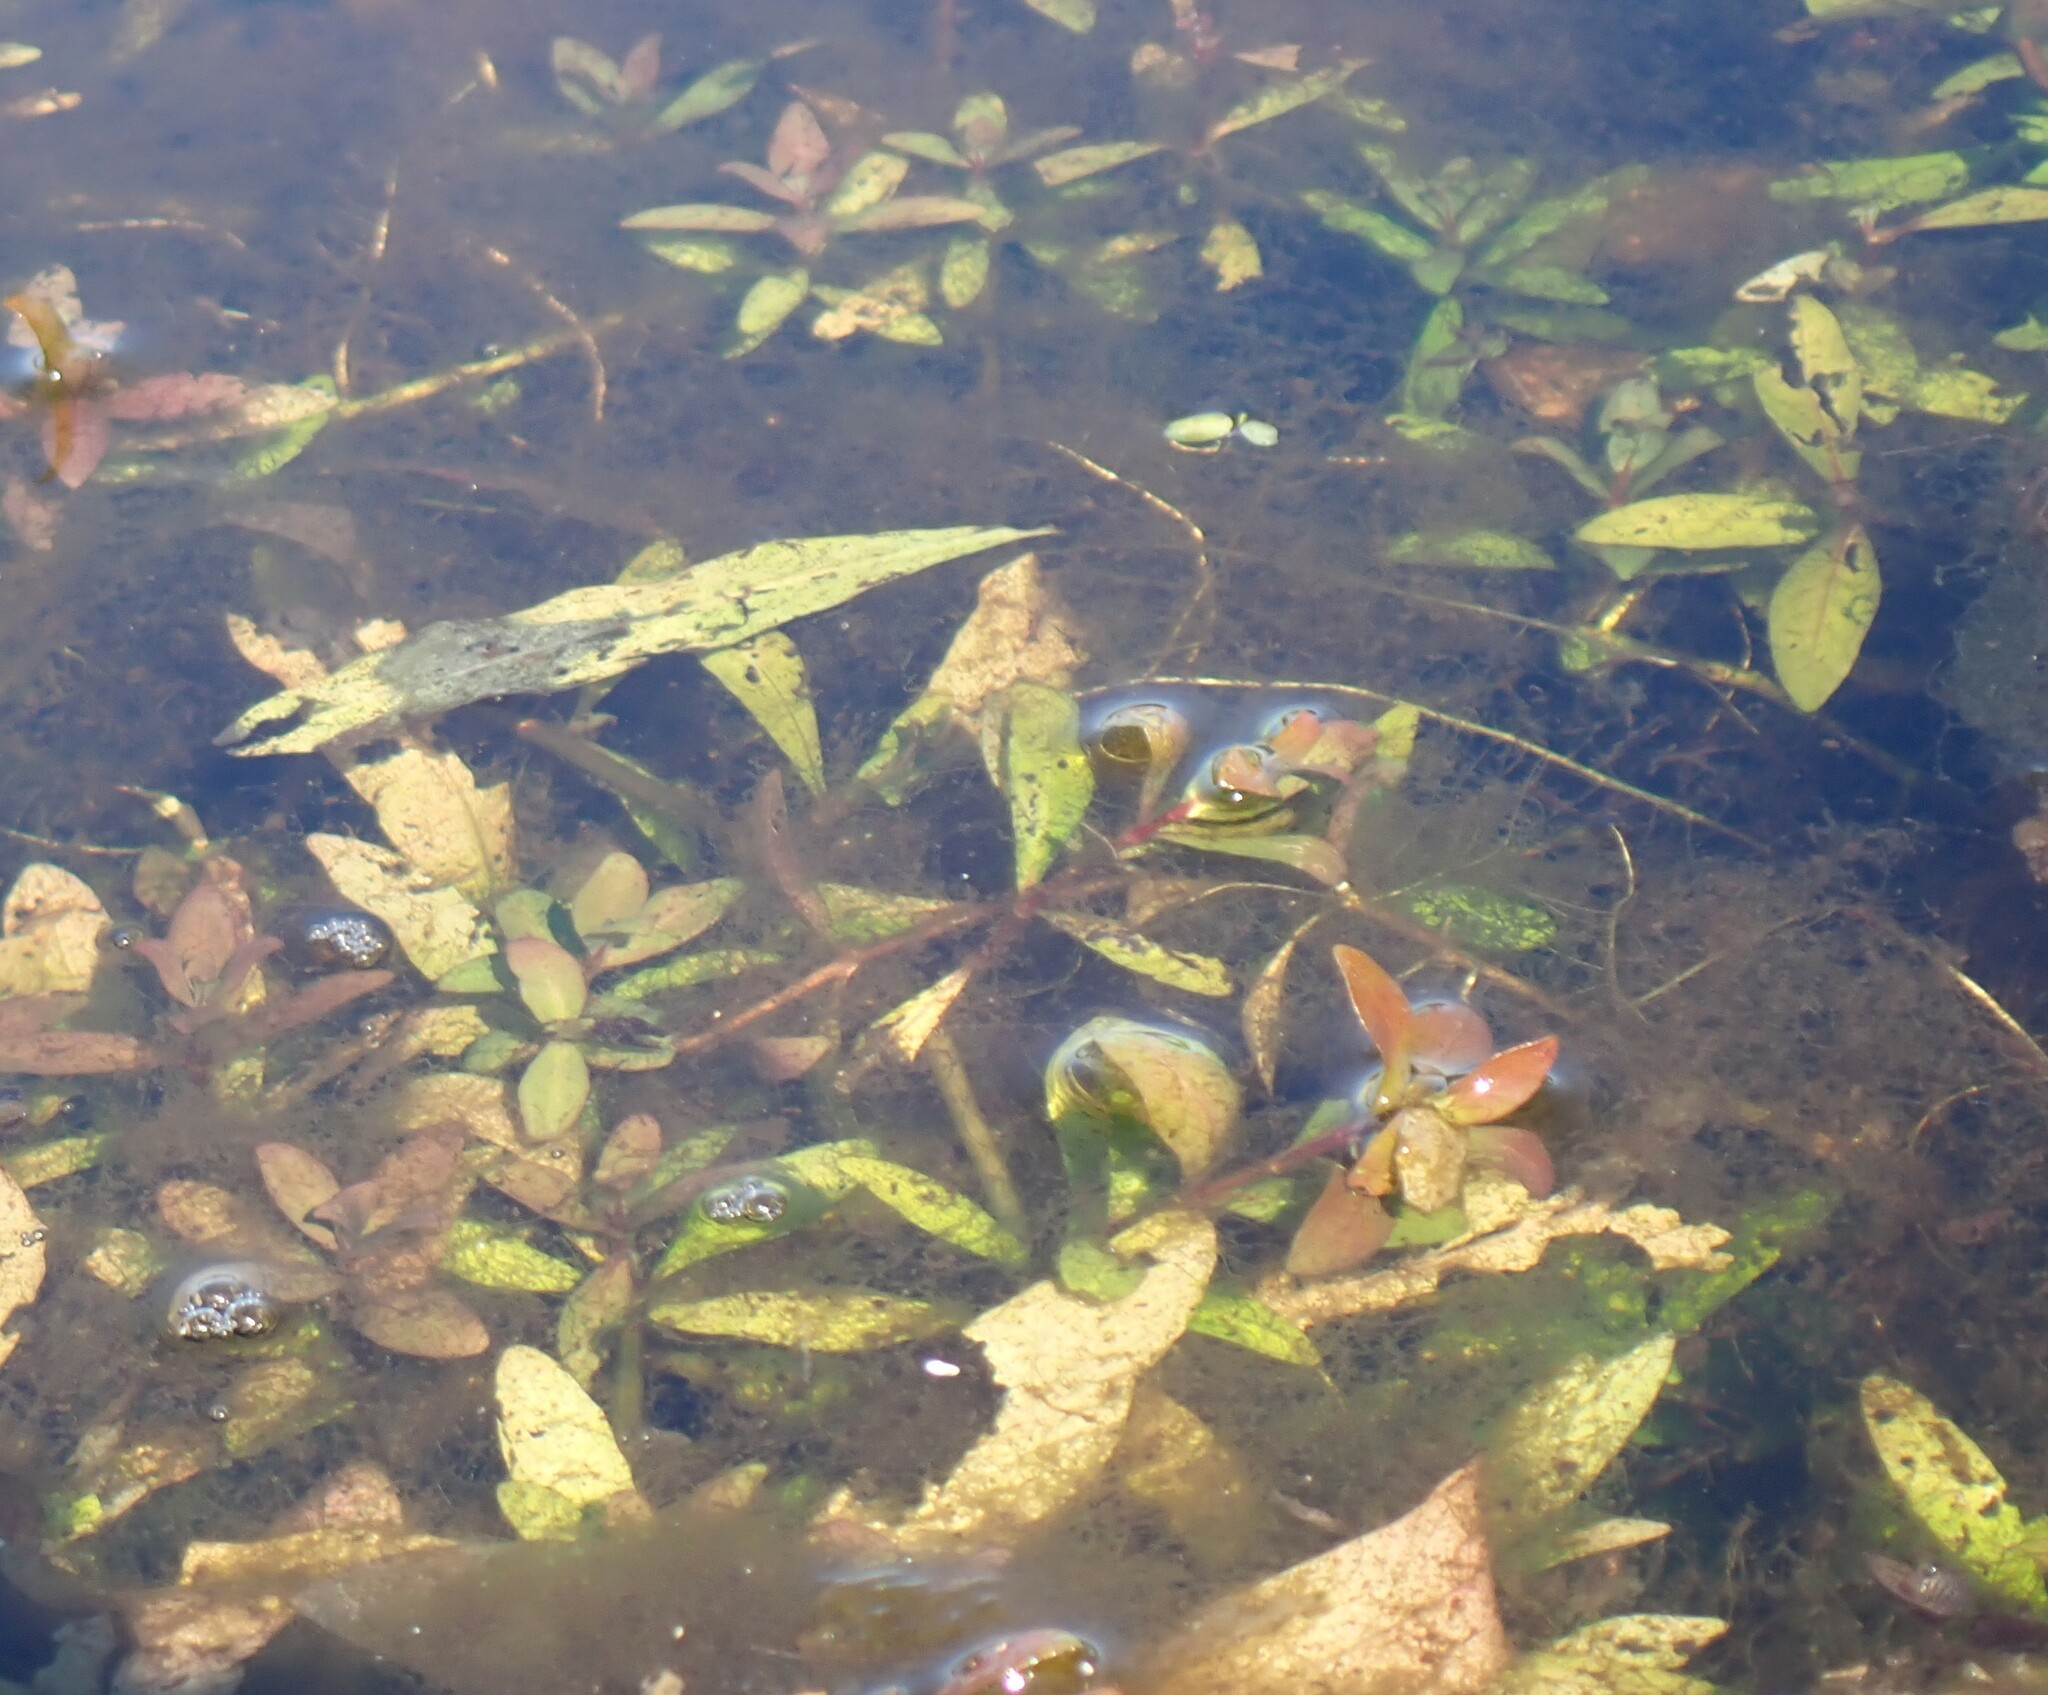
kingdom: Plantae
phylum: Tracheophyta
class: Magnoliopsida
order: Lamiales
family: Acanthaceae
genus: Hygrophila
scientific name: Hygrophila polysperma
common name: Indian swampweed
